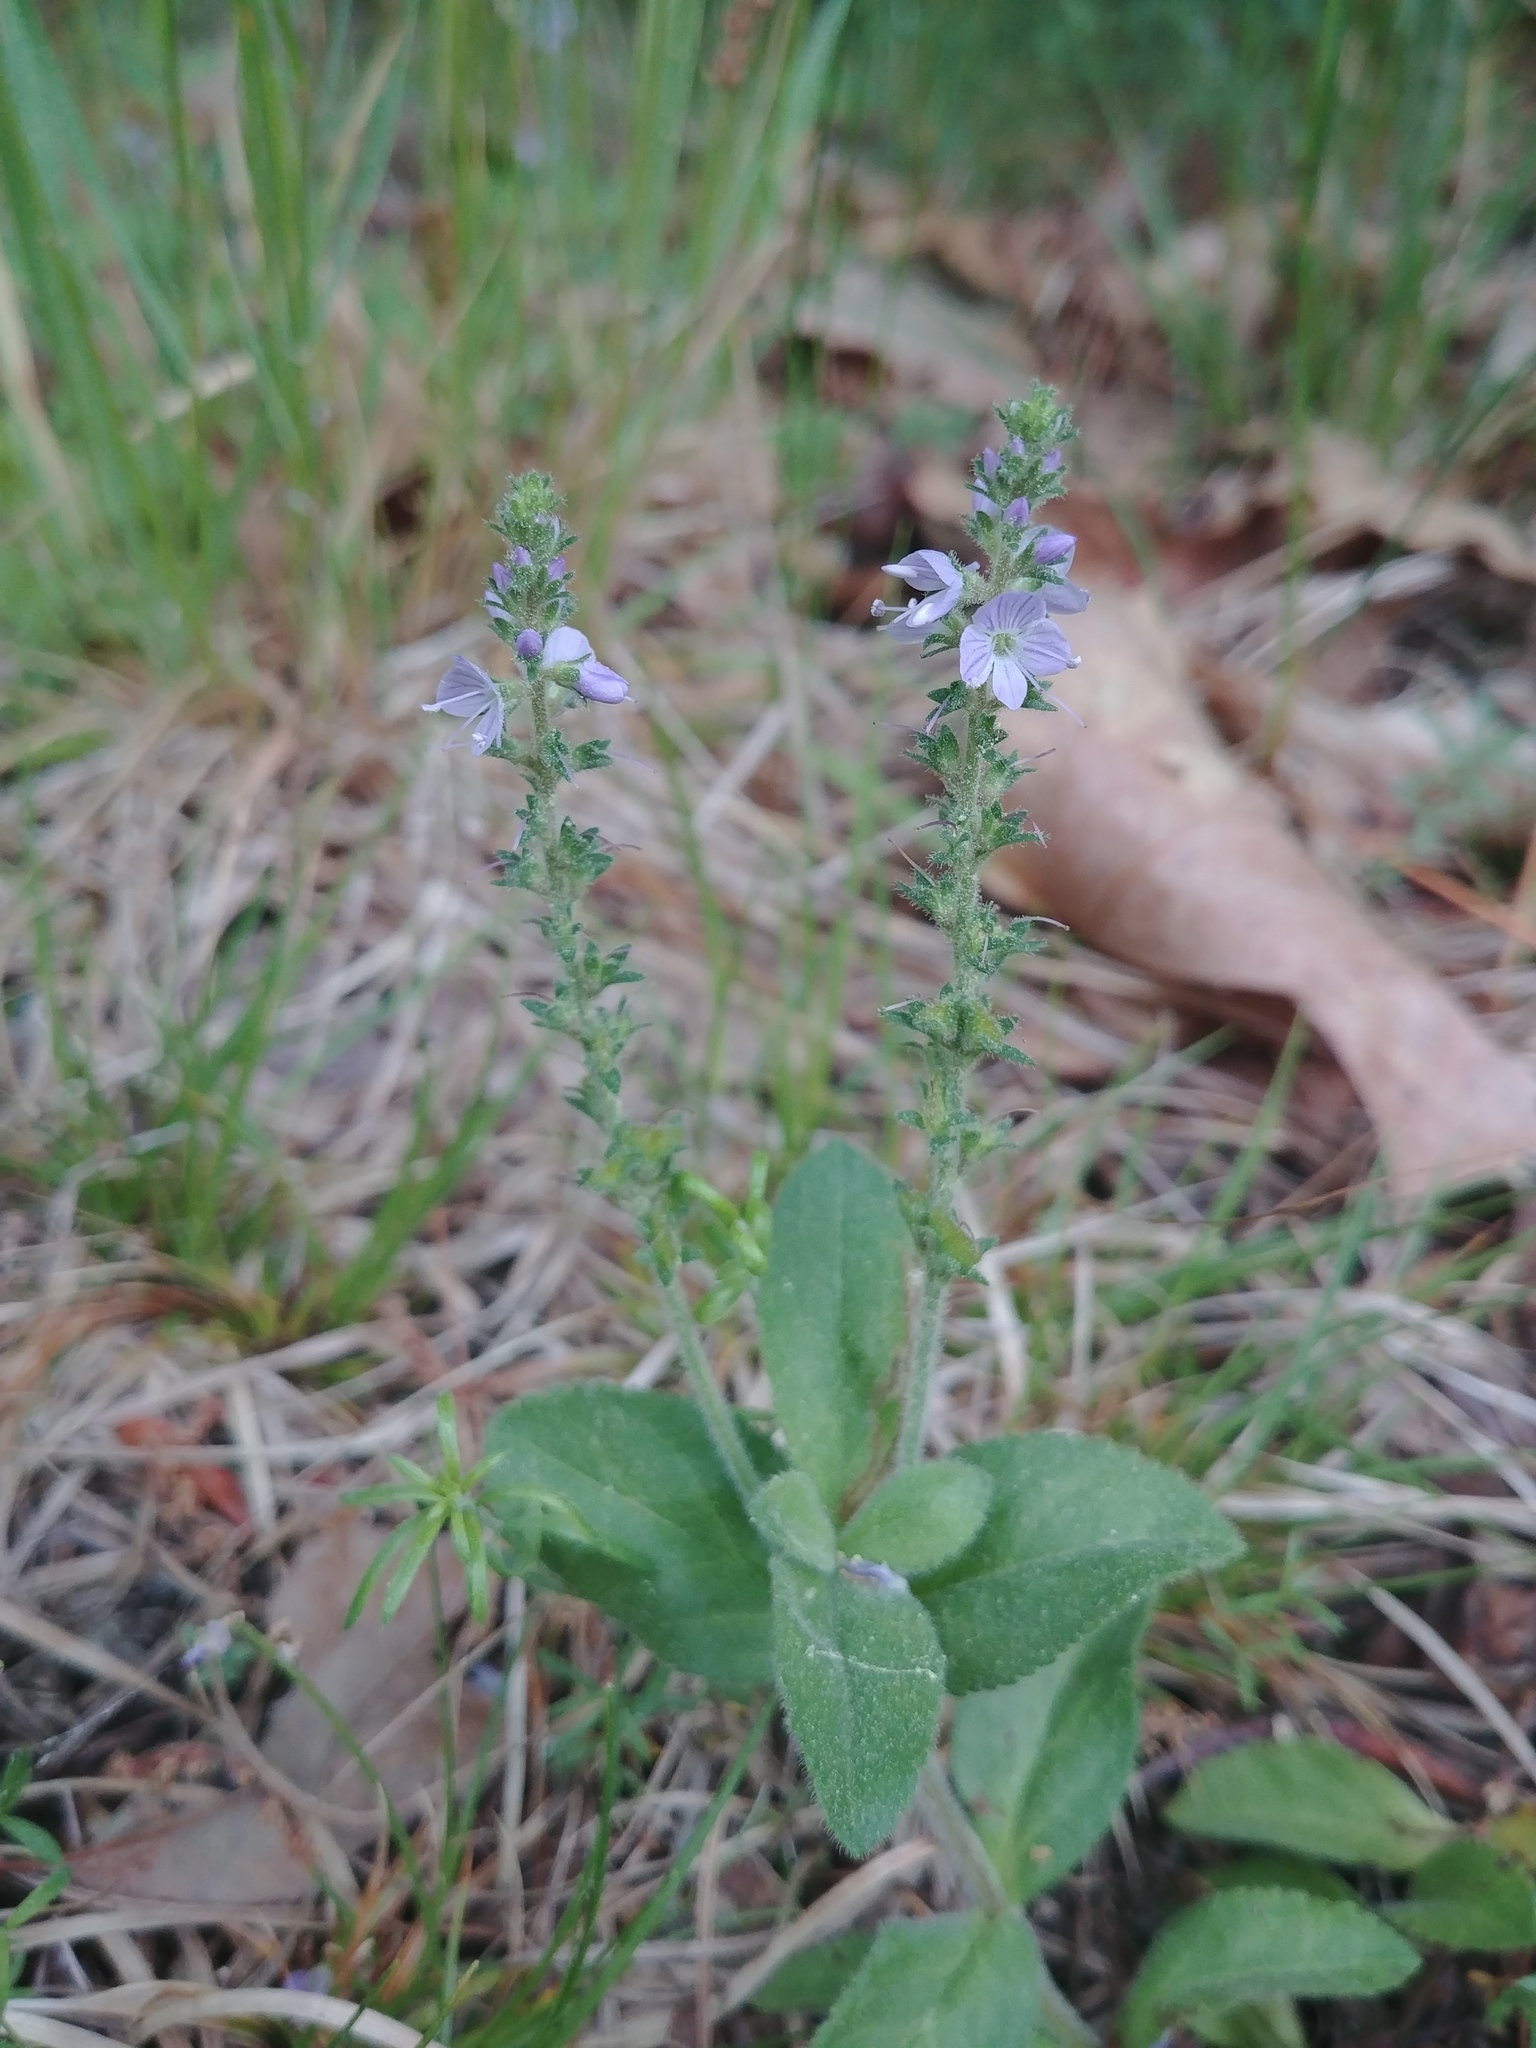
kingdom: Plantae
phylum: Tracheophyta
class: Magnoliopsida
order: Lamiales
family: Plantaginaceae
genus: Veronica
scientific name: Veronica officinalis
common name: Common speedwell
